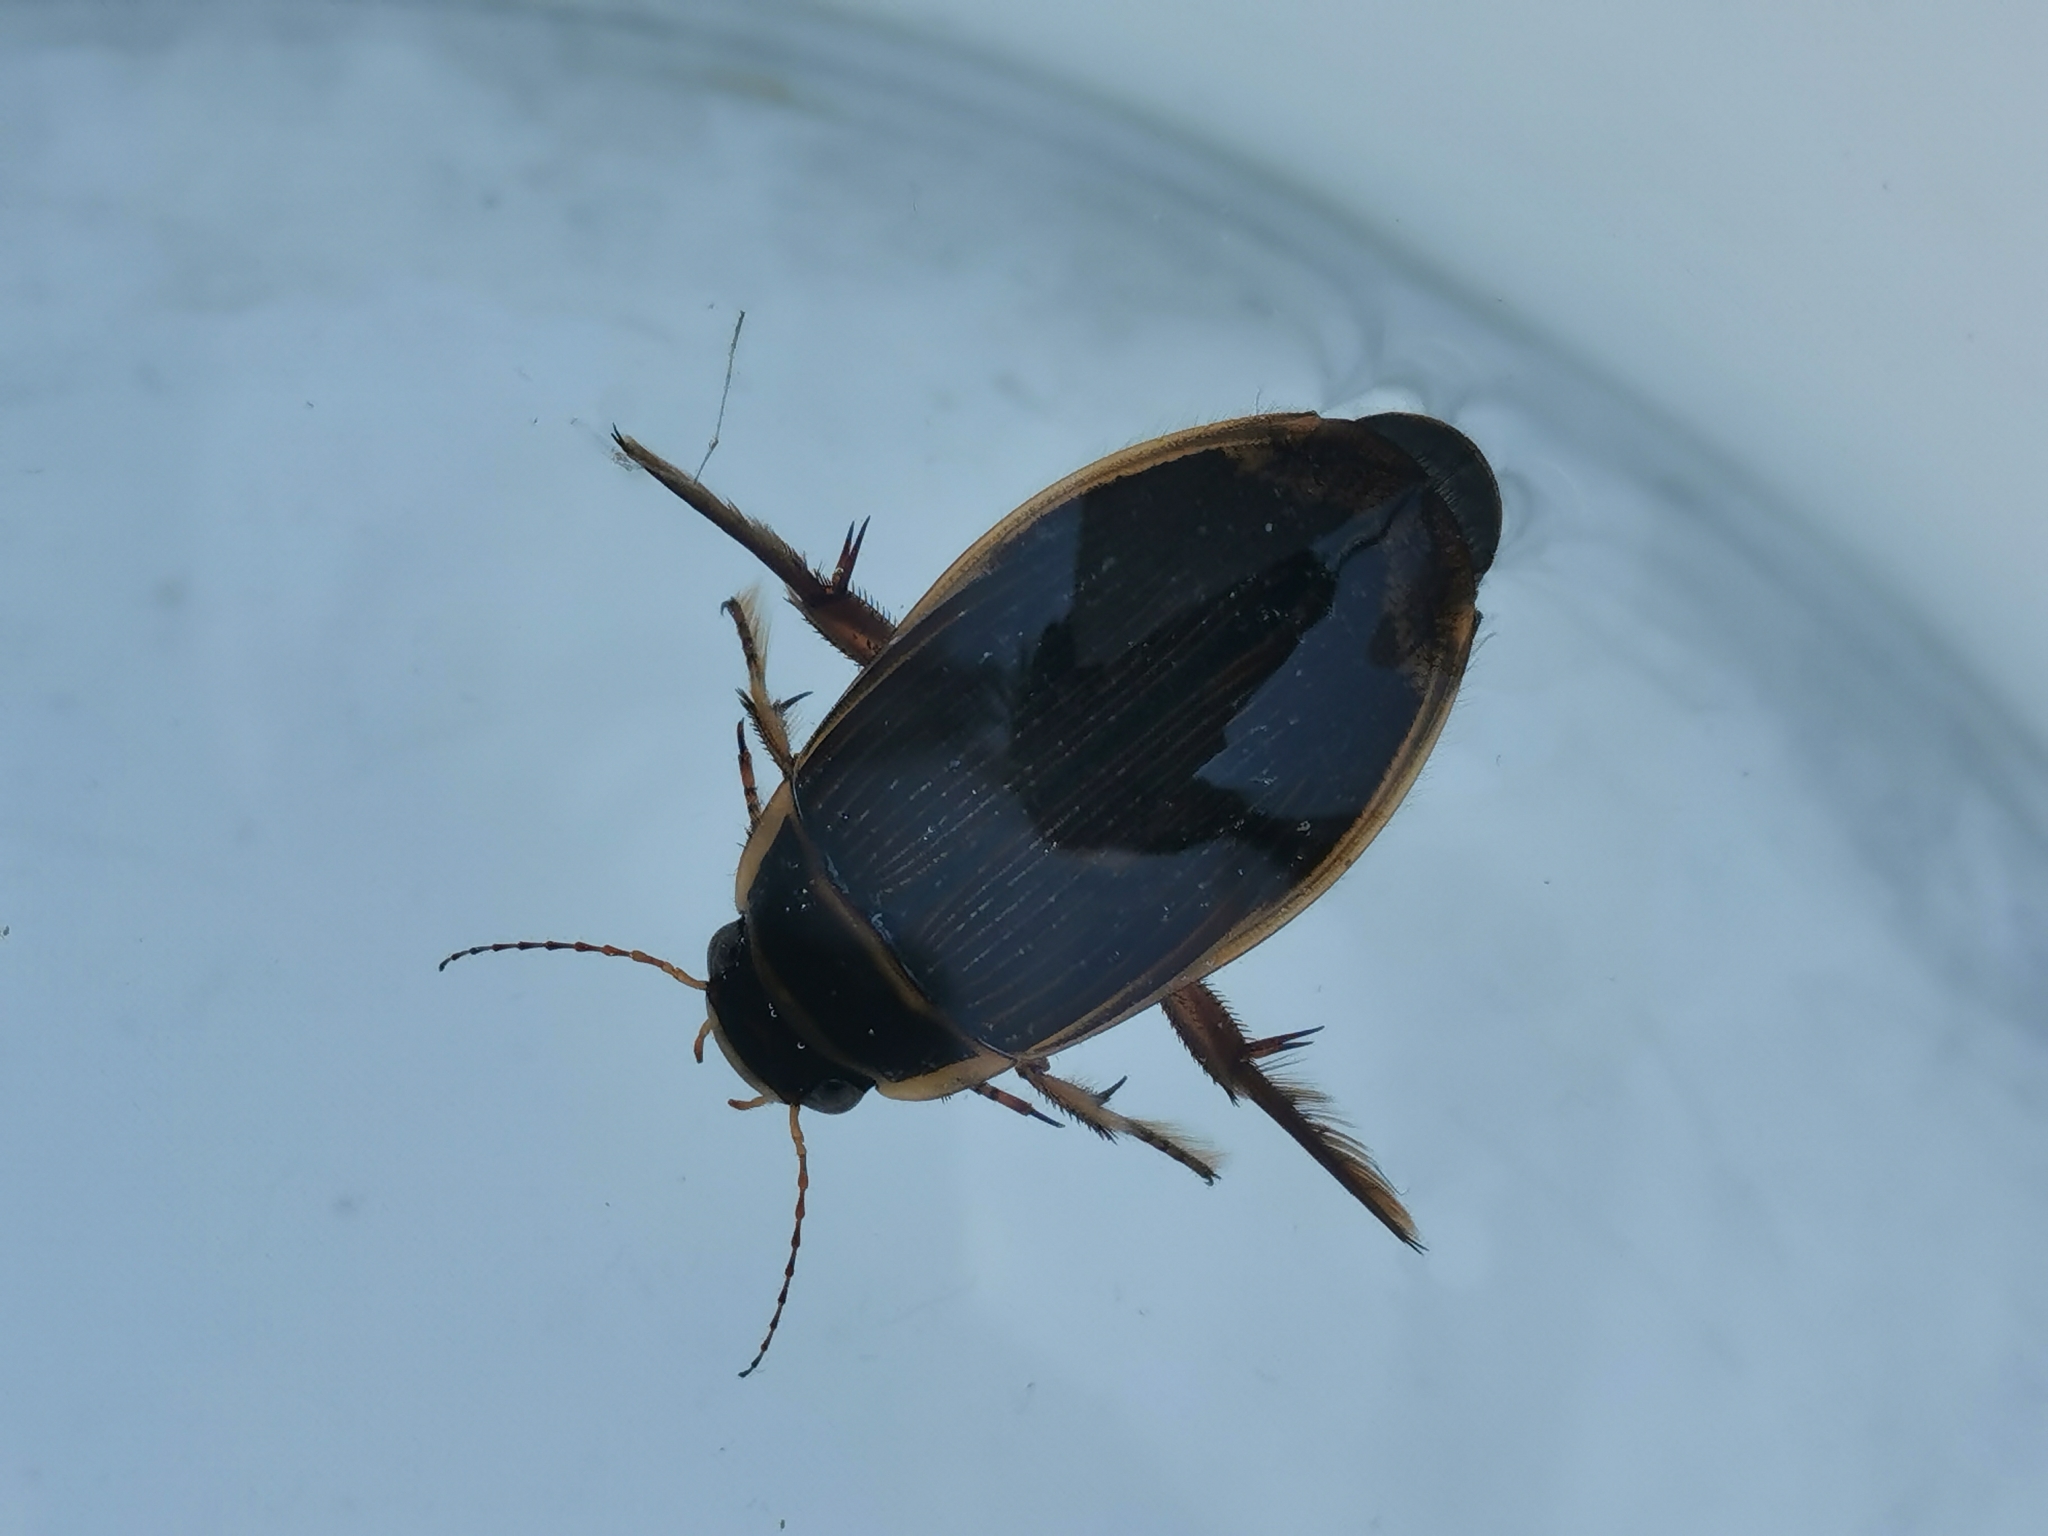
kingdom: Animalia
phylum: Arthropoda
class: Insecta
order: Coleoptera
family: Dytiscidae
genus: Dytiscus
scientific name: Dytiscus marginalis
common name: Great water beetle
